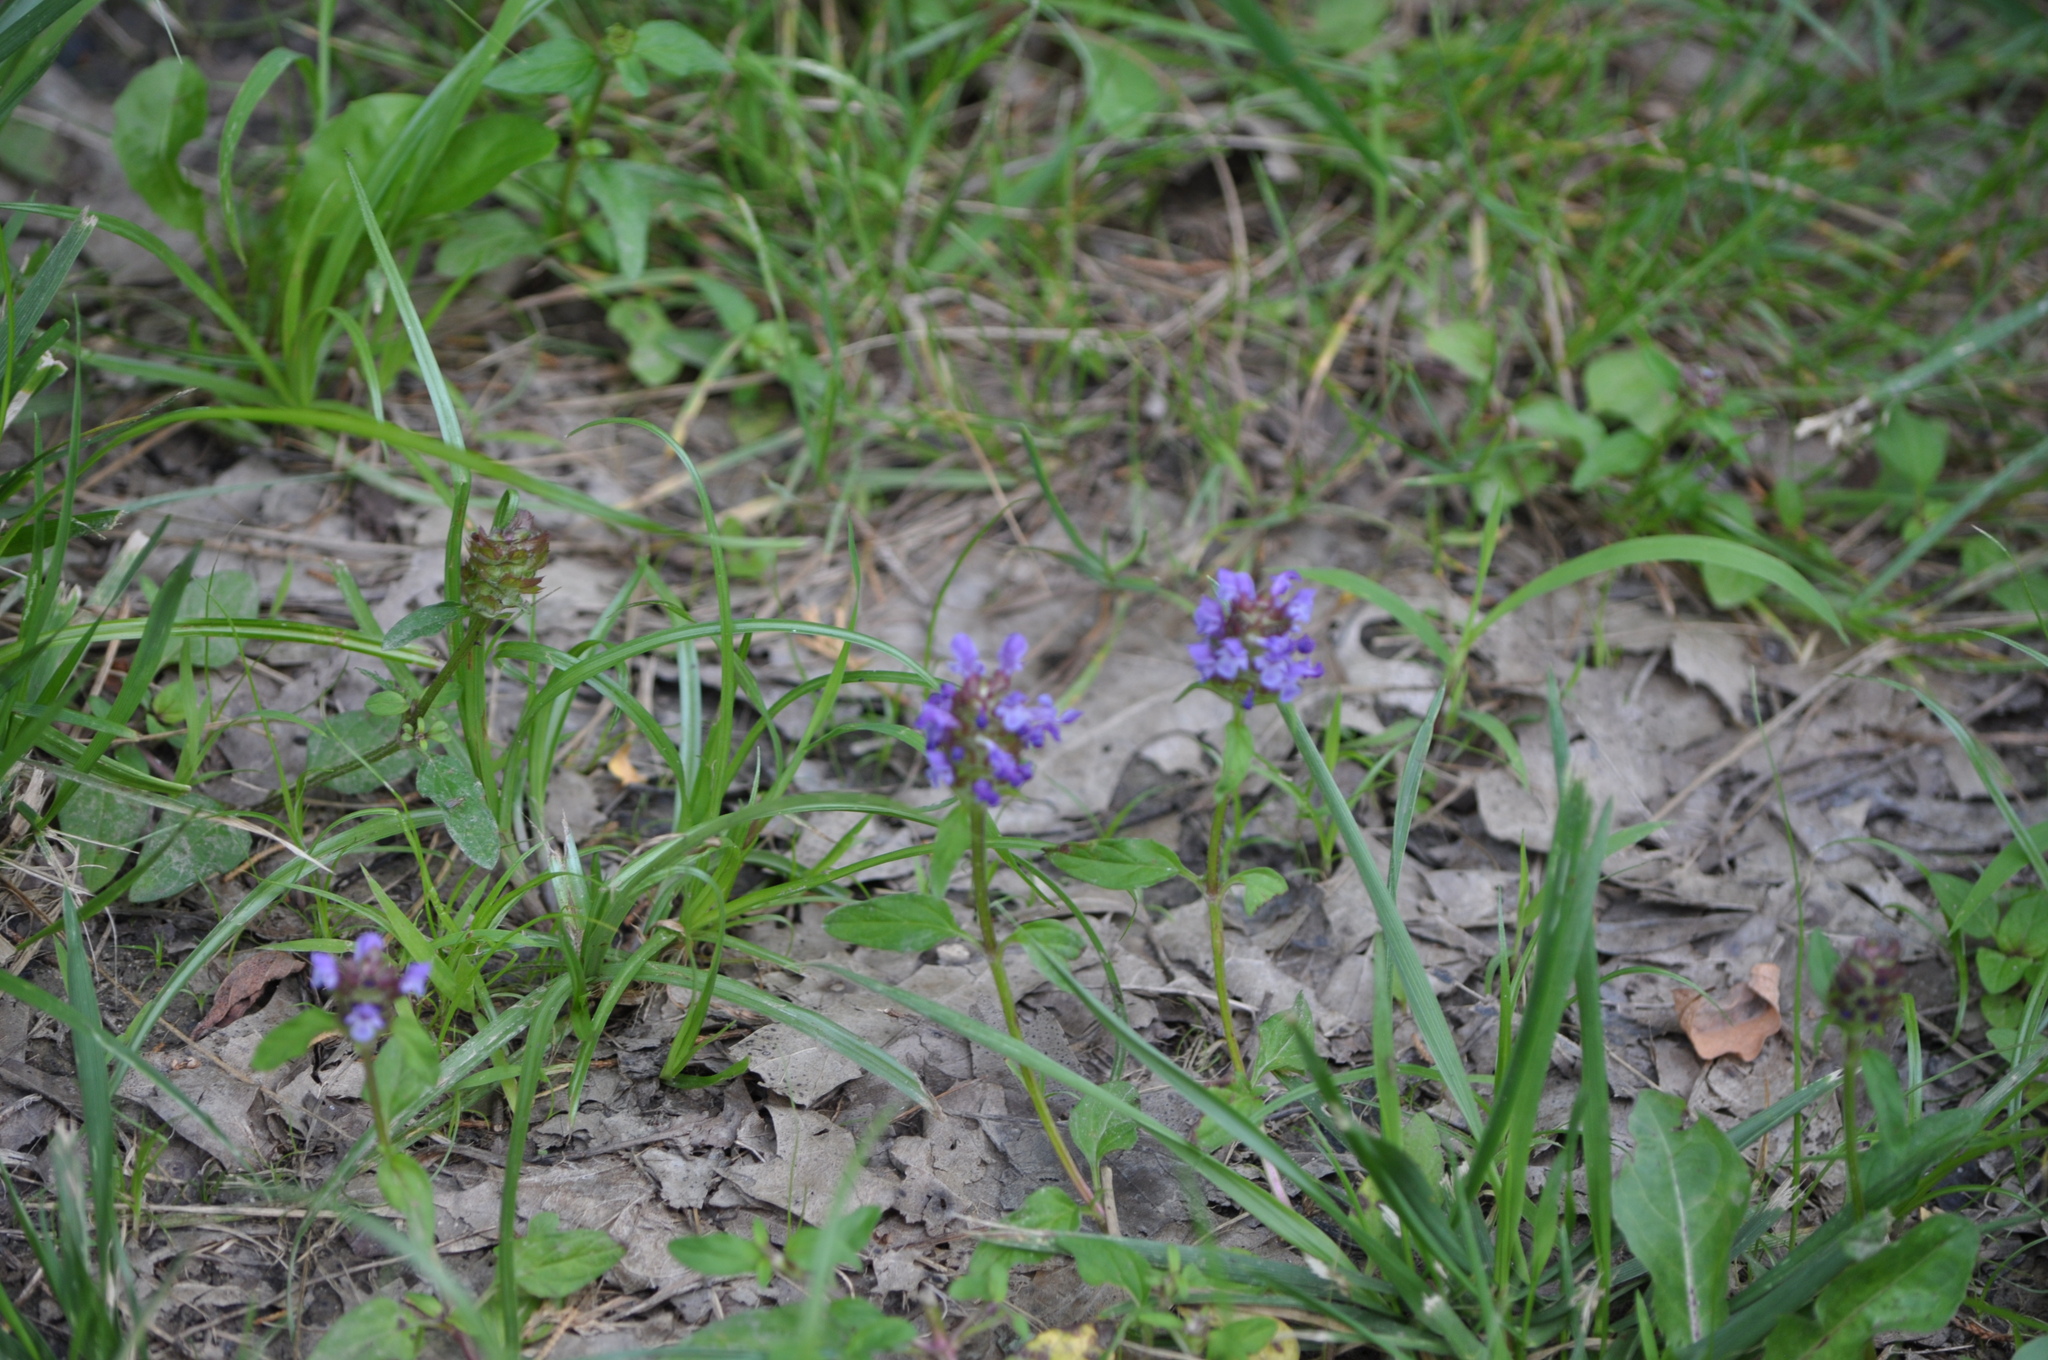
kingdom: Plantae
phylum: Tracheophyta
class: Magnoliopsida
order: Lamiales
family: Lamiaceae
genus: Prunella
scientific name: Prunella vulgaris
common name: Heal-all
